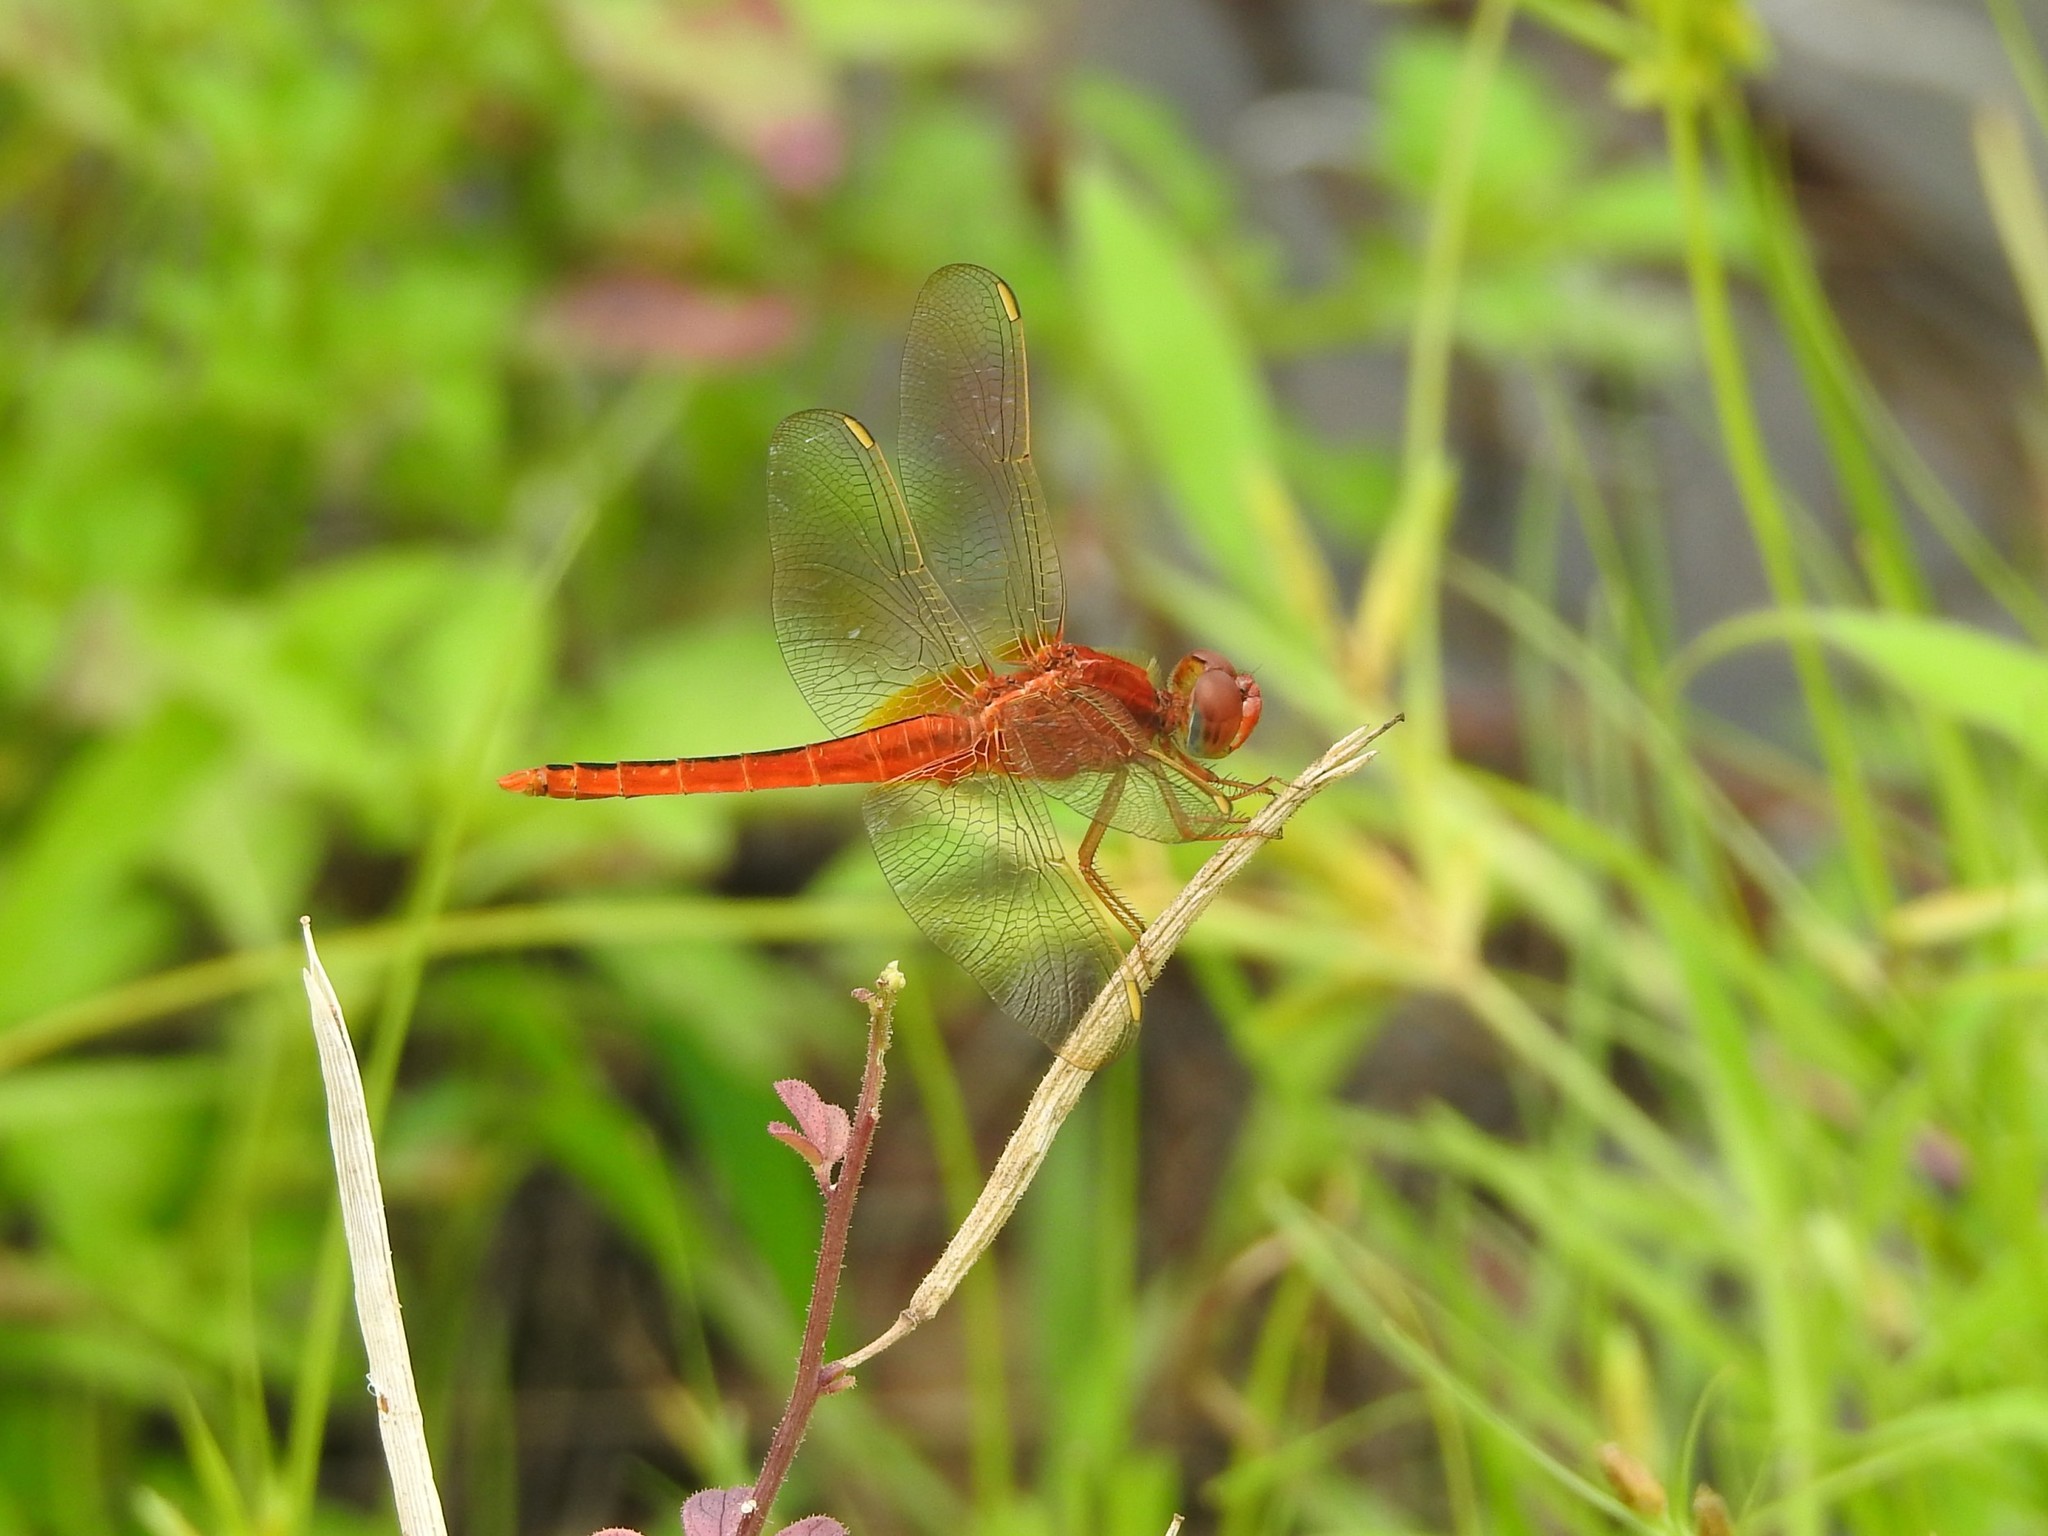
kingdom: Animalia
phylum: Arthropoda
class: Insecta
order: Odonata
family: Libellulidae
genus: Crocothemis
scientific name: Crocothemis servilia
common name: Scarlet skimmer
